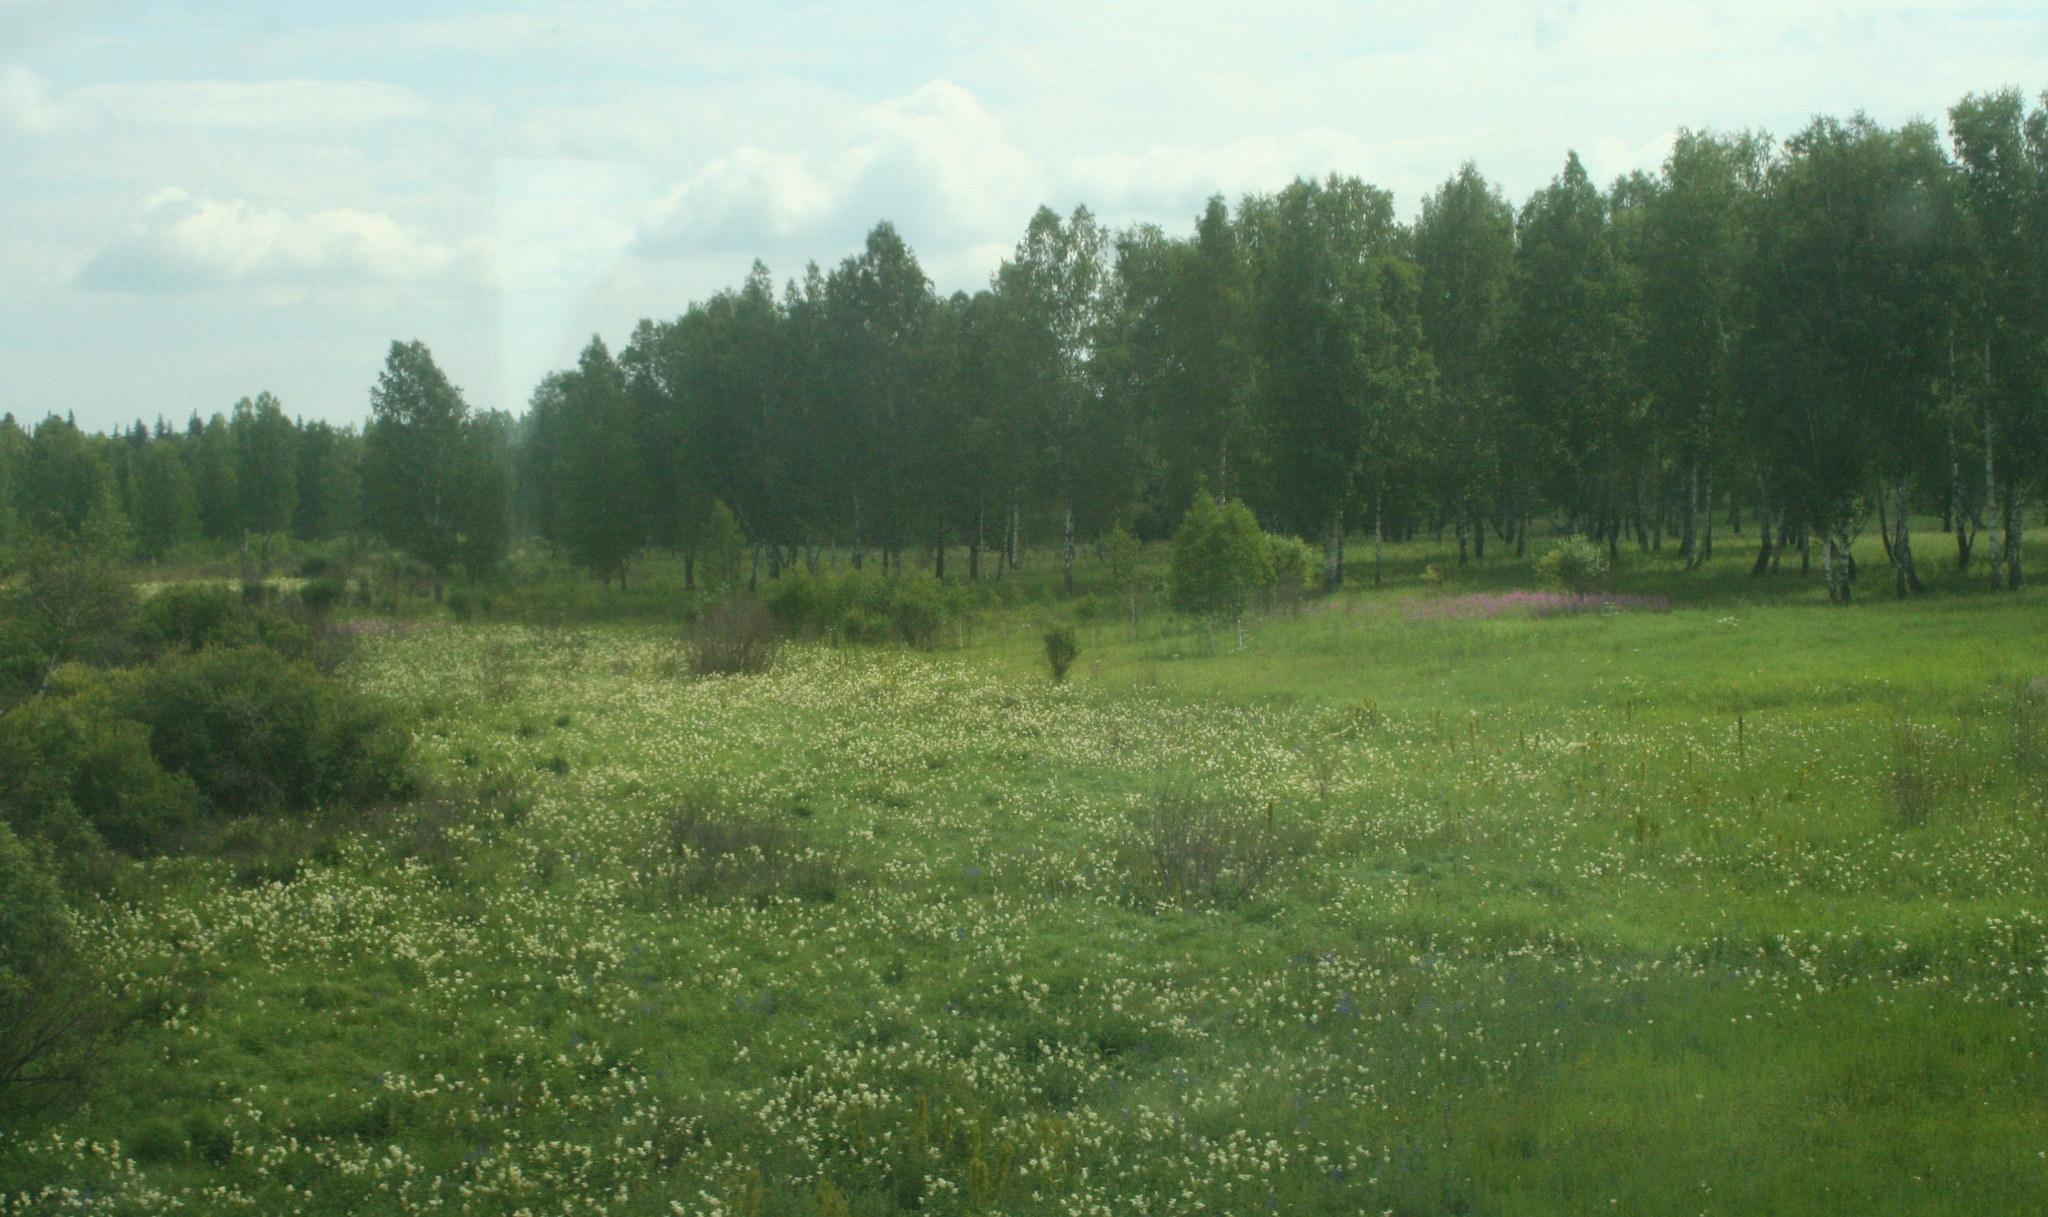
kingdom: Plantae
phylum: Tracheophyta
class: Magnoliopsida
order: Rosales
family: Rosaceae
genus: Filipendula
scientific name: Filipendula ulmaria
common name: Meadowsweet
